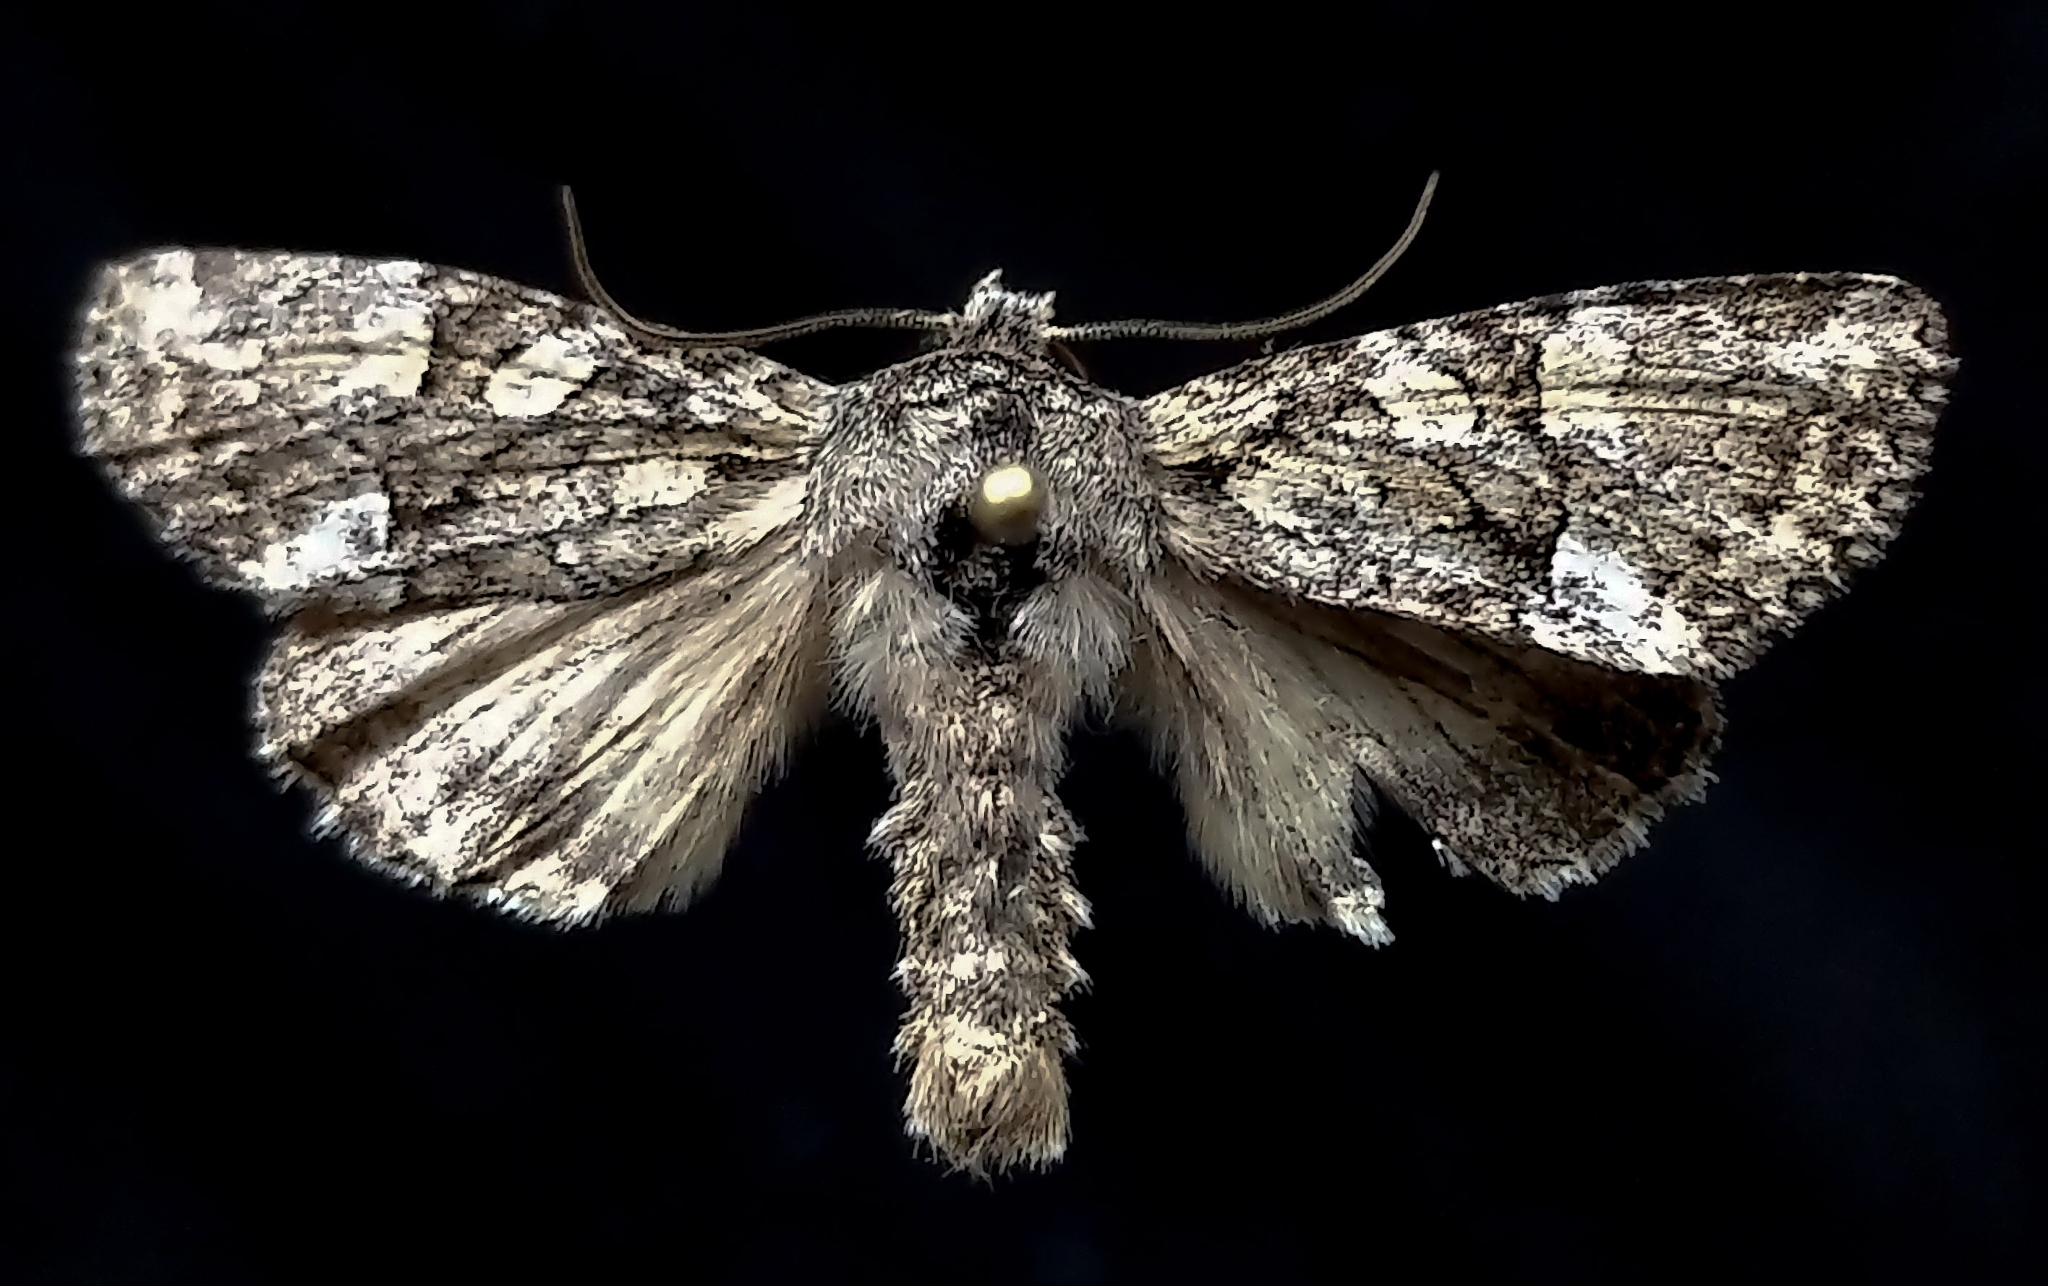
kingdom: Animalia
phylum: Arthropoda
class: Insecta
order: Lepidoptera
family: Noctuidae
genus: Eremobina
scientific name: Eremobina claudens
